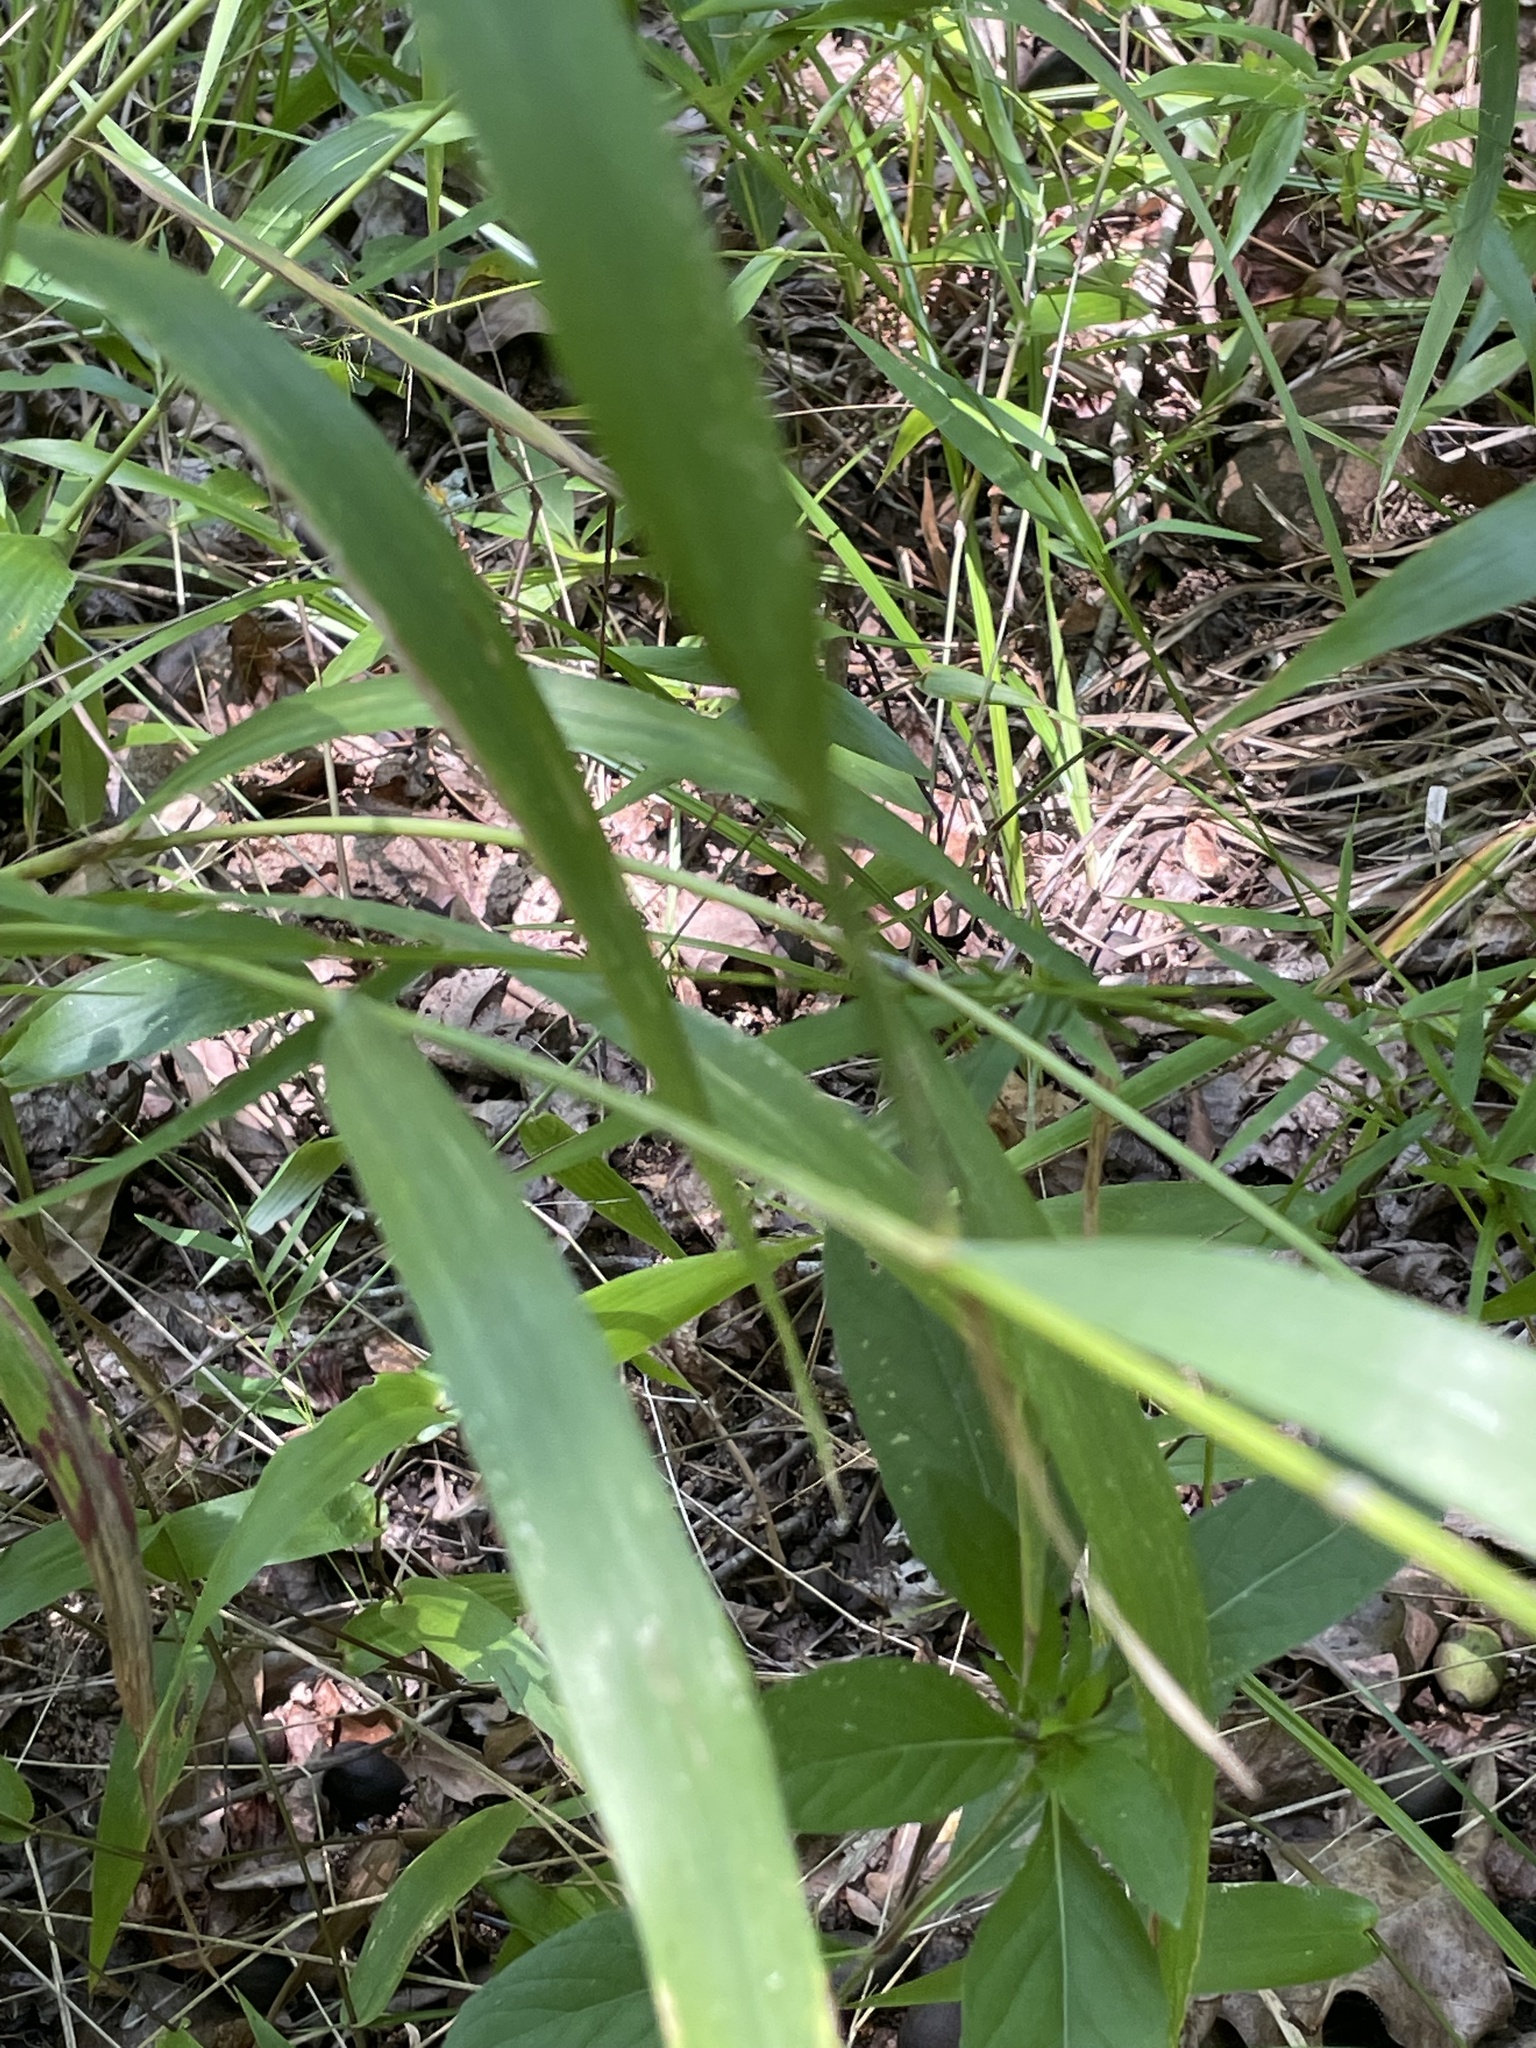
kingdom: Plantae
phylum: Tracheophyta
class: Liliopsida
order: Poales
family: Poaceae
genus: Elymus
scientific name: Elymus hystrix
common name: Bottlebrush grass
